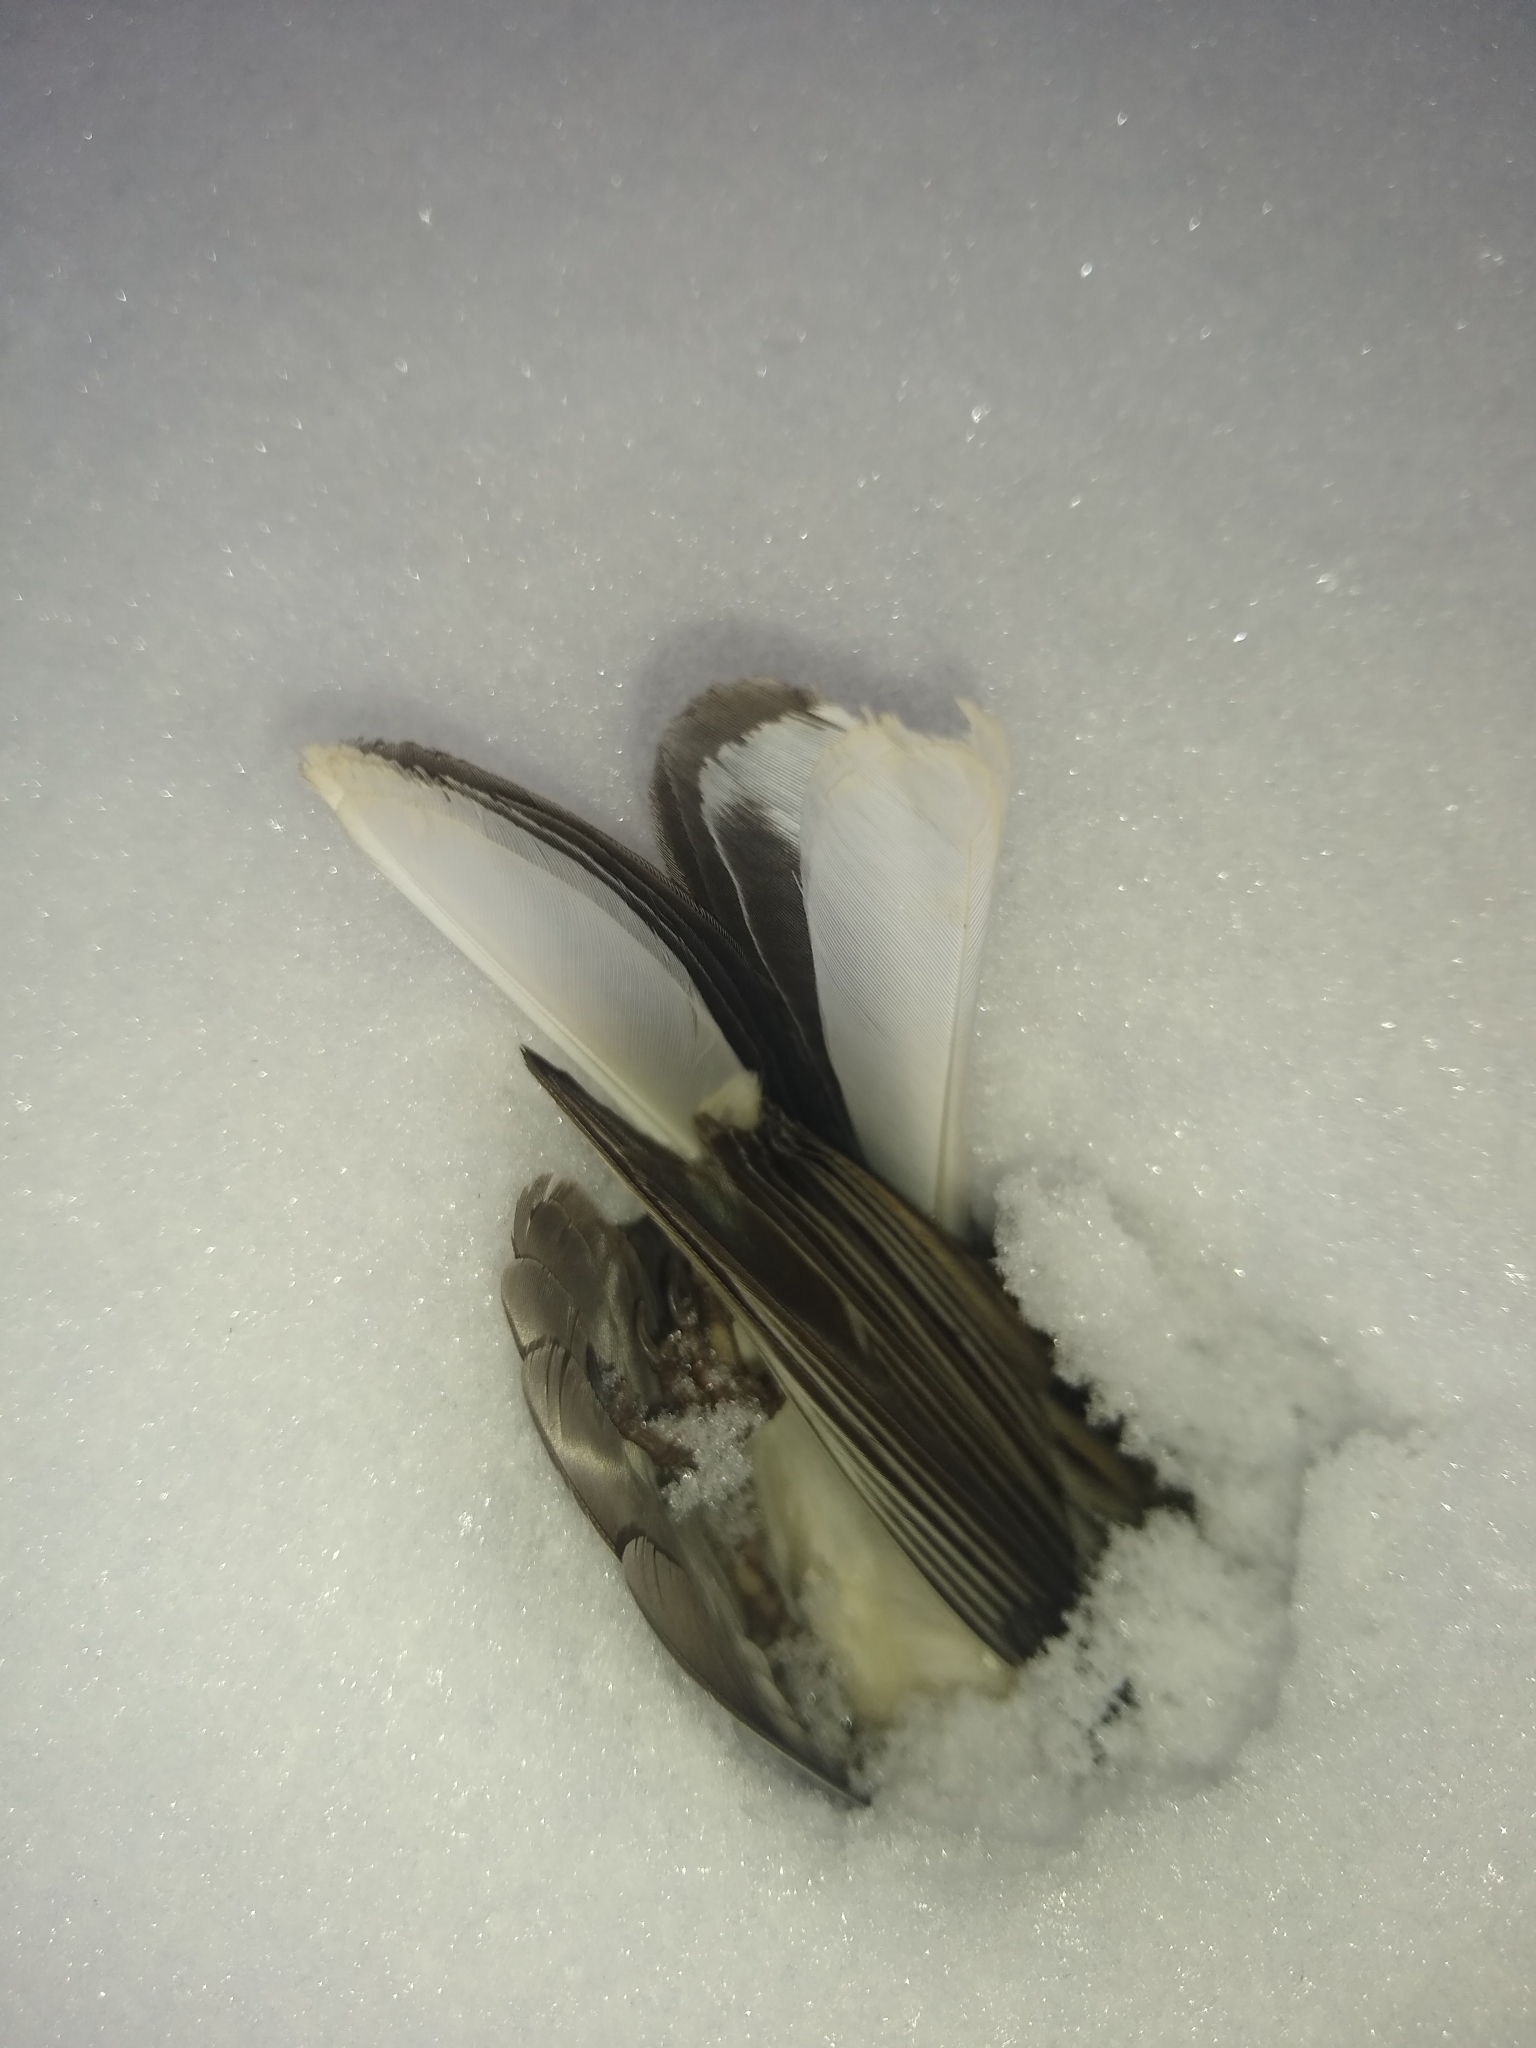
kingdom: Animalia
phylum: Chordata
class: Aves
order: Passeriformes
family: Passerellidae
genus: Junco
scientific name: Junco hyemalis
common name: Dark-eyed junco
